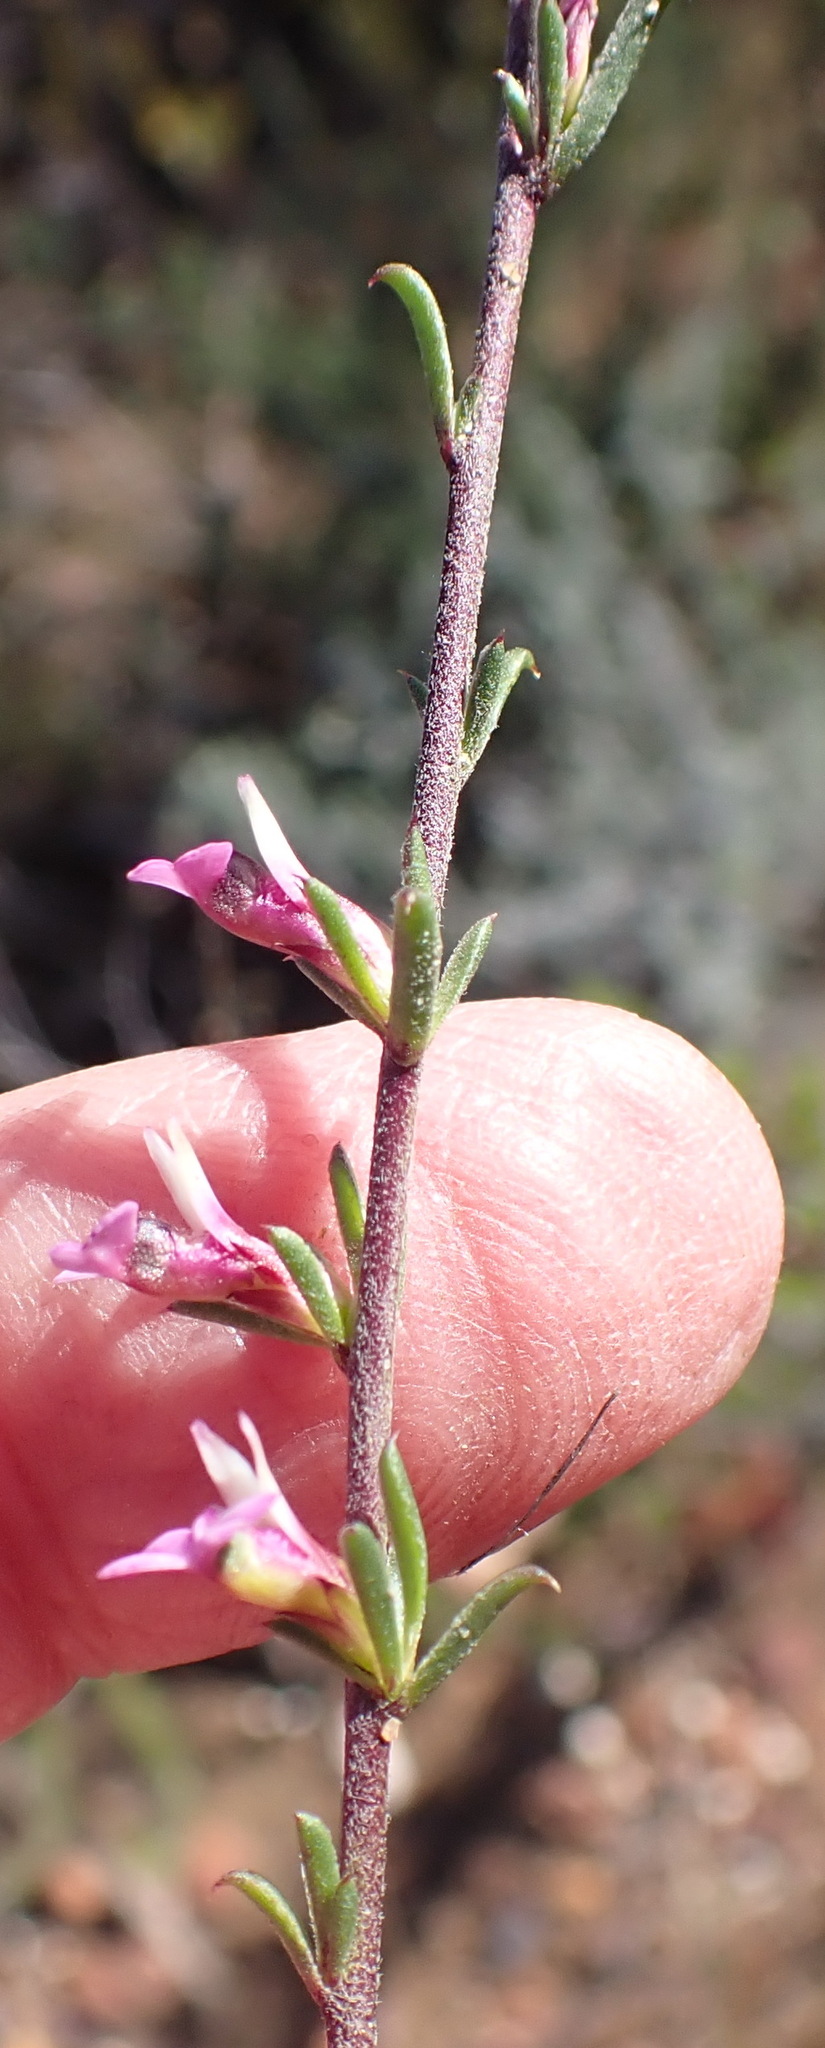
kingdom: Plantae
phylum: Tracheophyta
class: Magnoliopsida
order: Fabales
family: Polygalaceae
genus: Muraltia
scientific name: Muraltia dispersa
